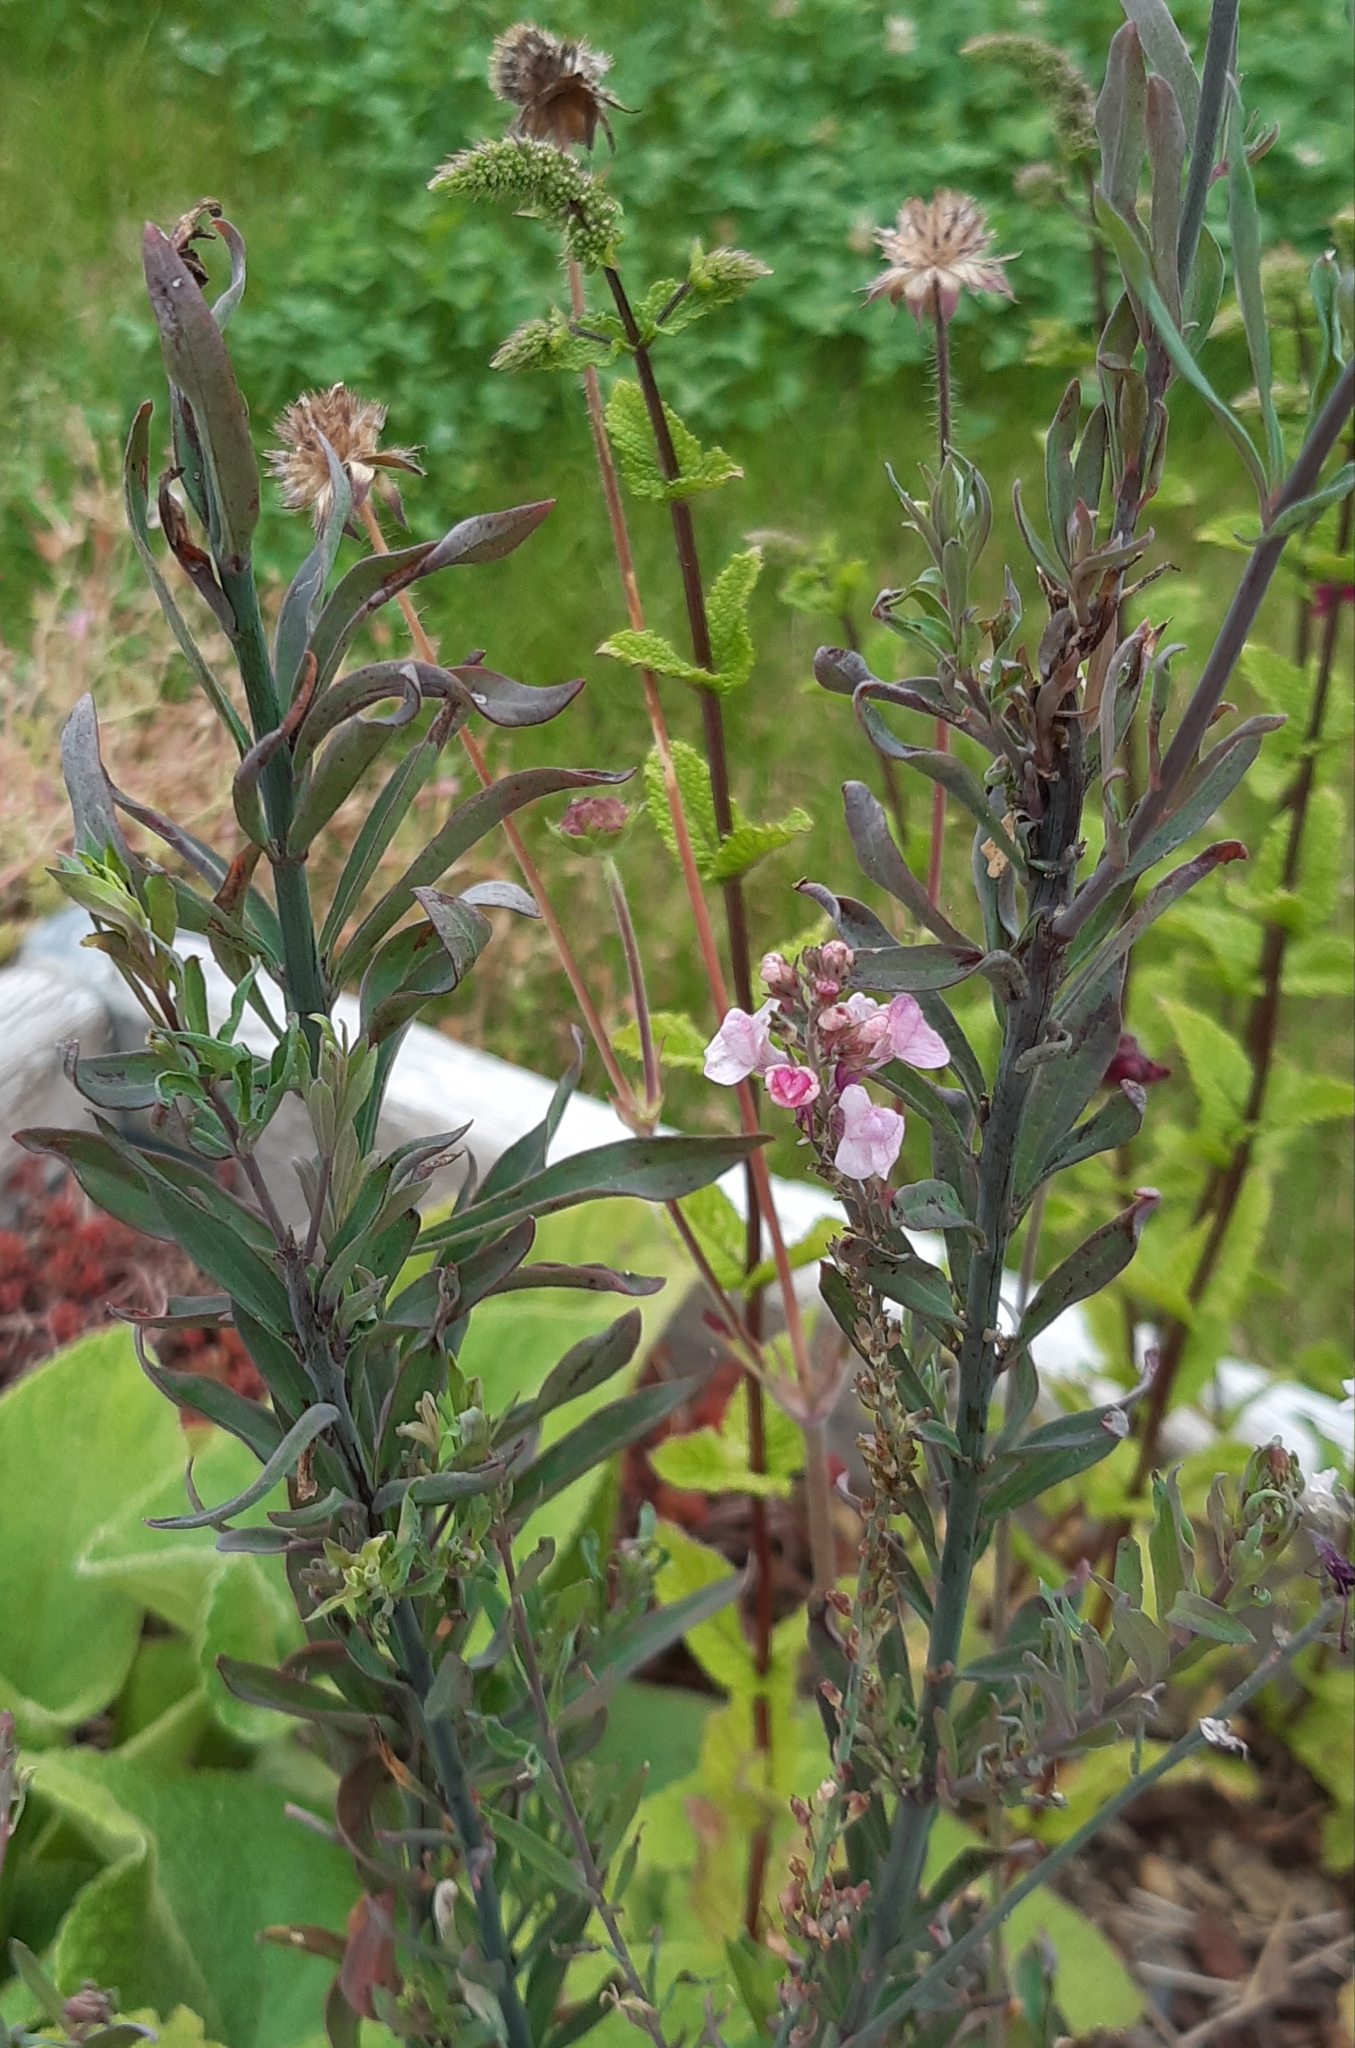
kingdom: Plantae
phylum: Tracheophyta
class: Magnoliopsida
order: Lamiales
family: Plantaginaceae
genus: Linaria
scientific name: Linaria purpurea
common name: Purple toadflax
